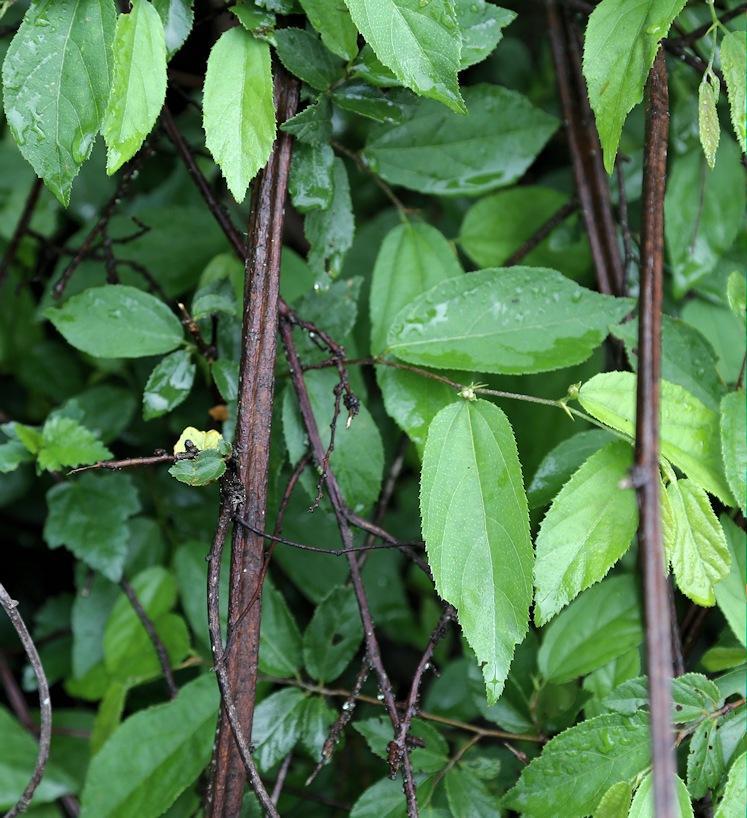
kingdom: Plantae
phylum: Tracheophyta
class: Magnoliopsida
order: Malvales
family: Malvaceae
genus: Grewia
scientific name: Grewia flavescens
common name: Sandpaper raisin
